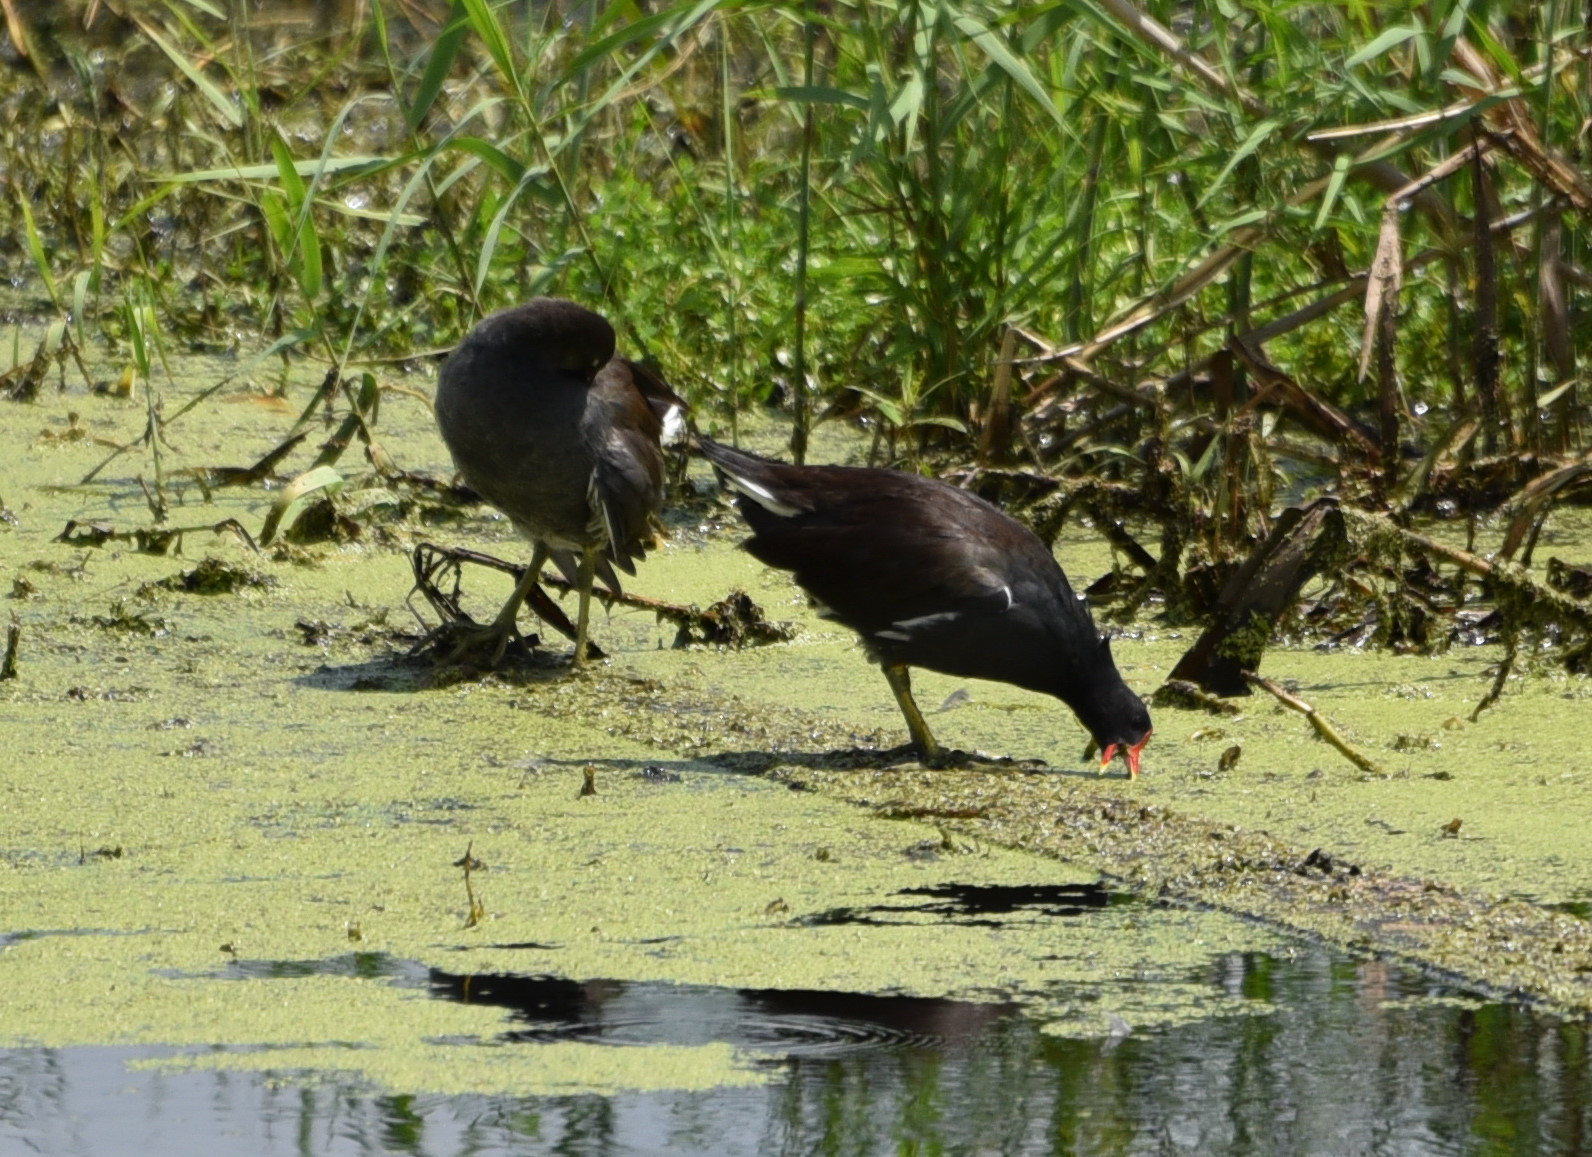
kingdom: Animalia
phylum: Chordata
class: Aves
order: Gruiformes
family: Rallidae
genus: Gallinula
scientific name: Gallinula chloropus
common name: Common moorhen
